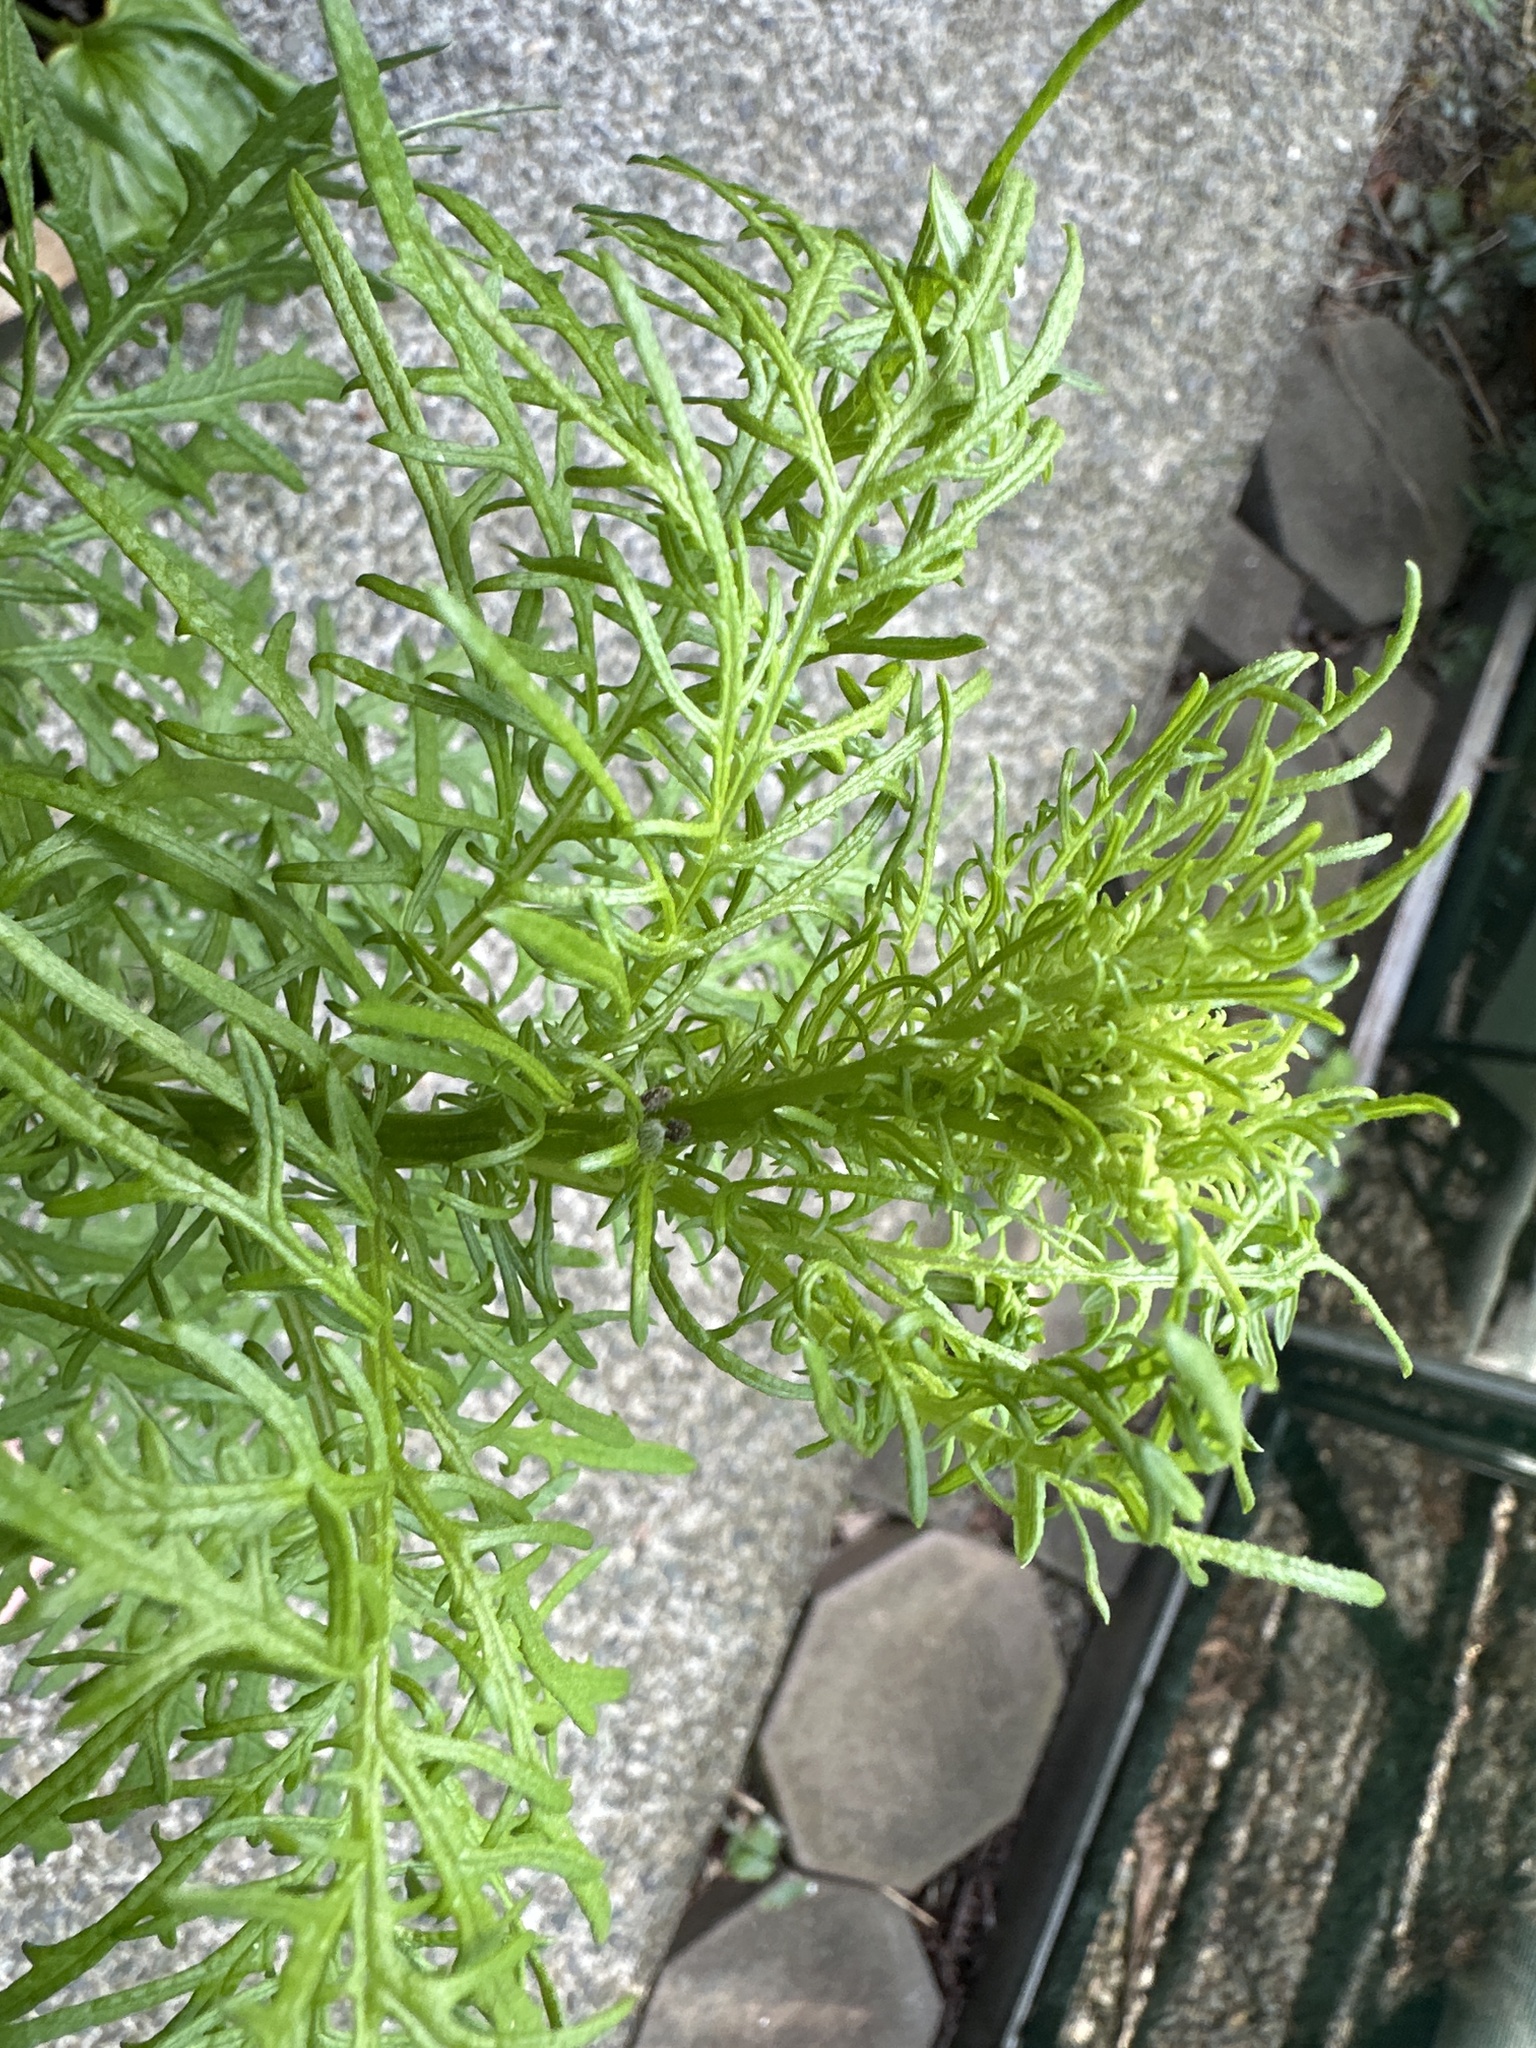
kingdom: Plantae
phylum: Tracheophyta
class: Magnoliopsida
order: Asterales
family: Asteraceae
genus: Senecio
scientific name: Senecio bipinnatisectus
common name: Australian fireweed
